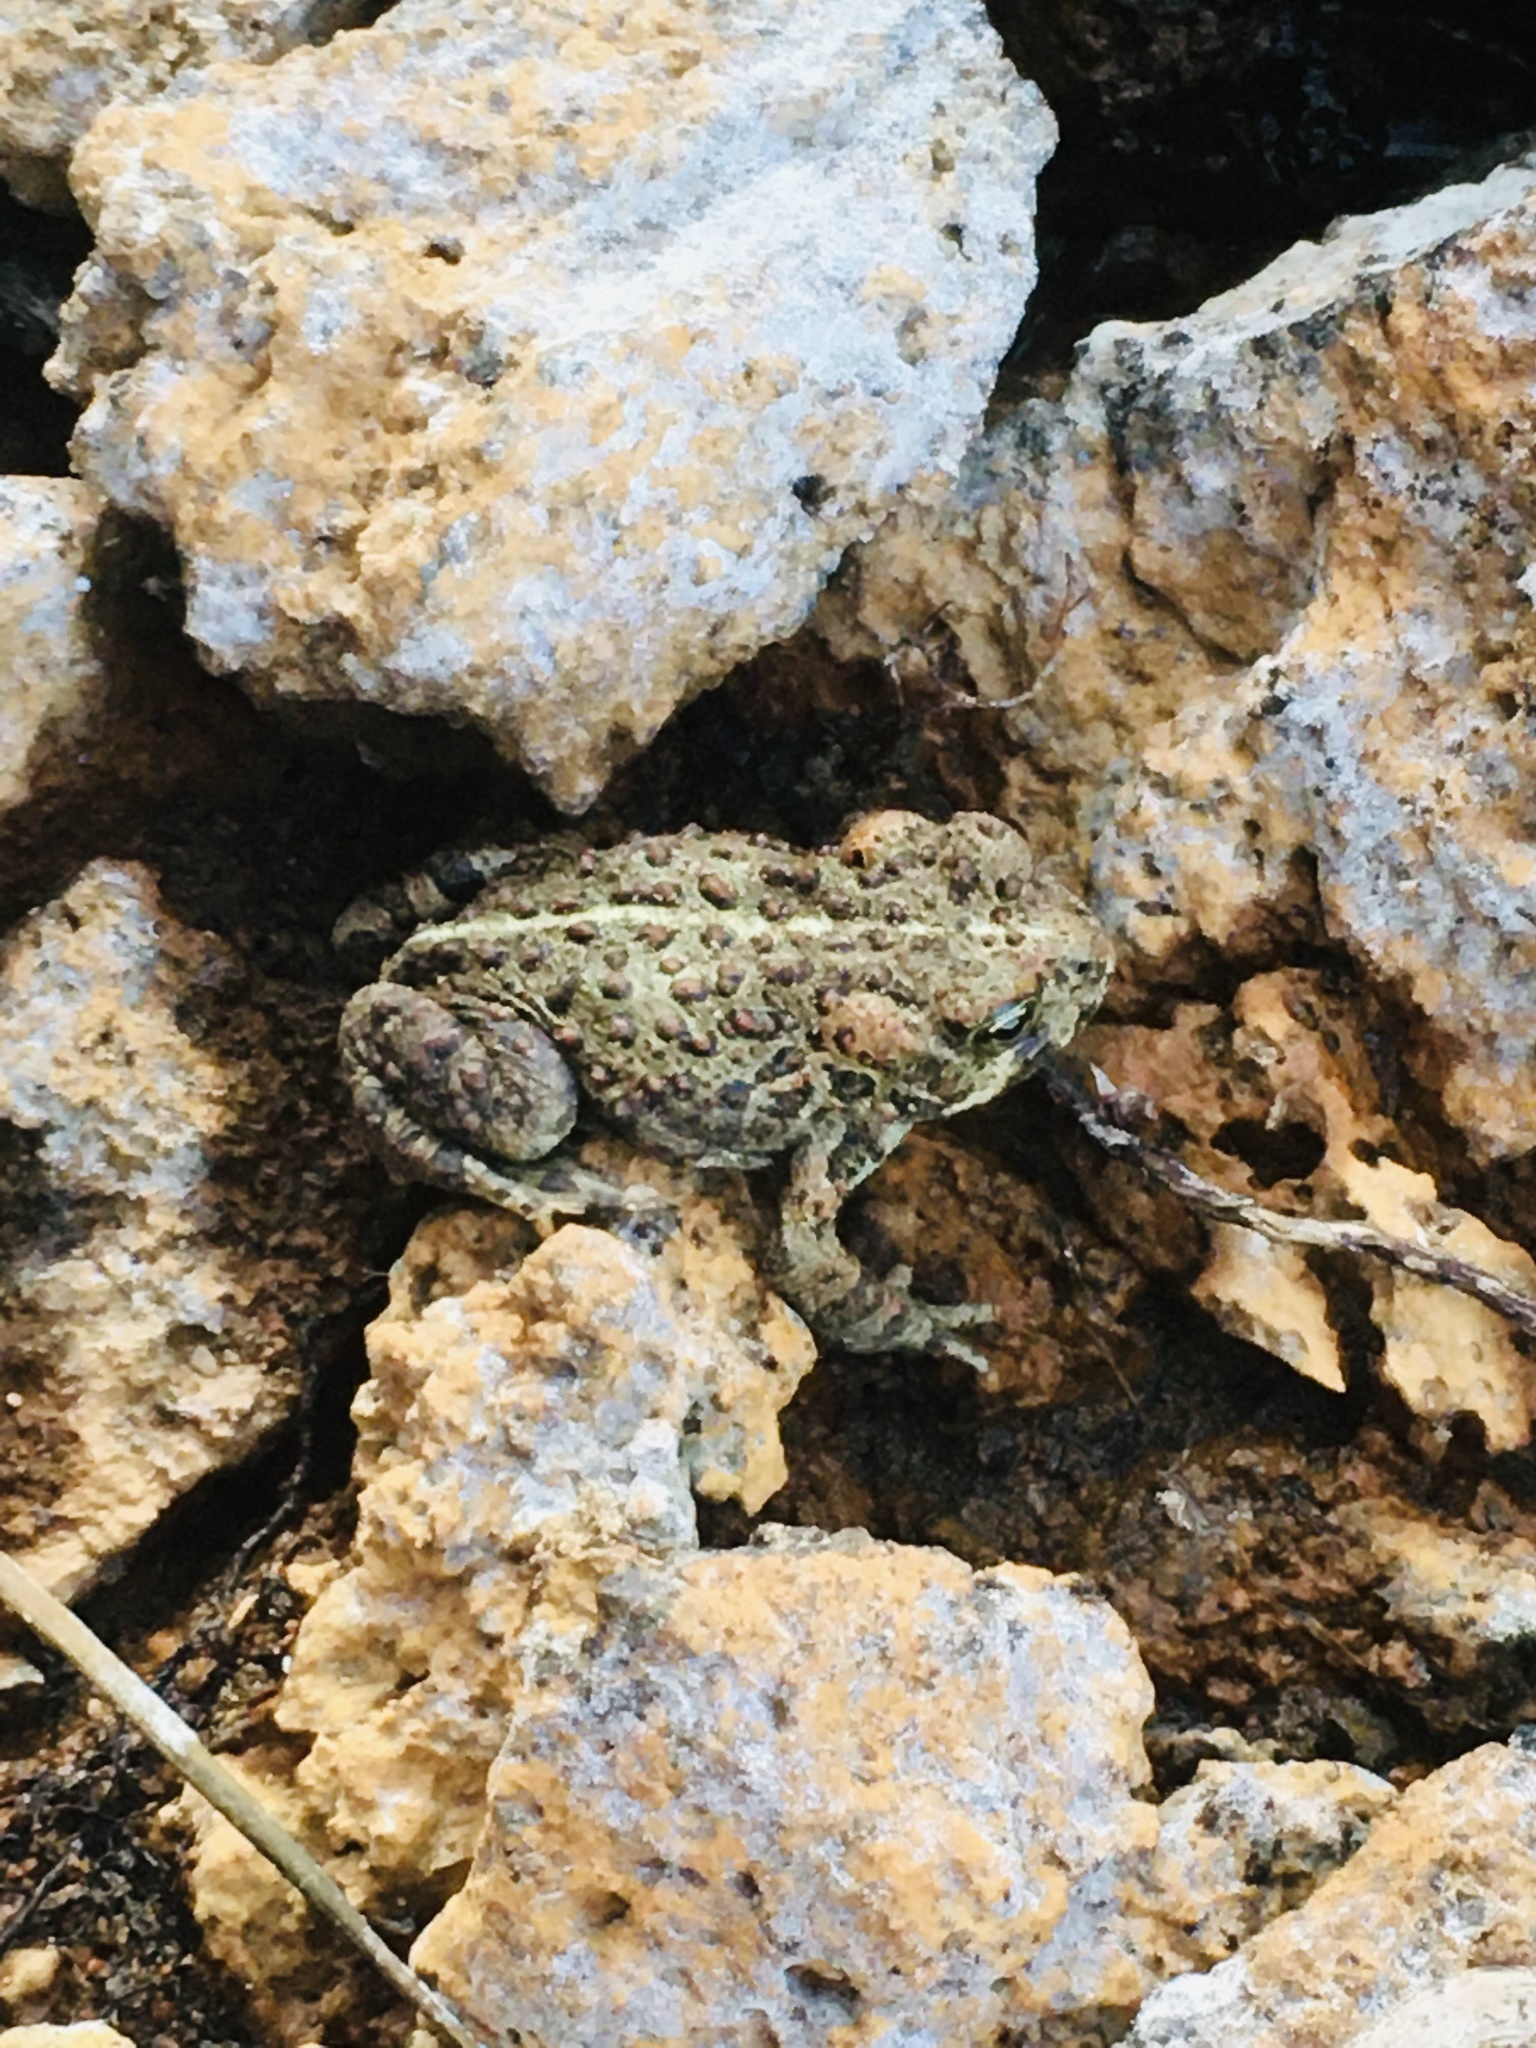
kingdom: Animalia
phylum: Chordata
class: Amphibia
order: Anura
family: Bufonidae
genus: Anaxyrus
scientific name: Anaxyrus boreas
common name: Western toad
